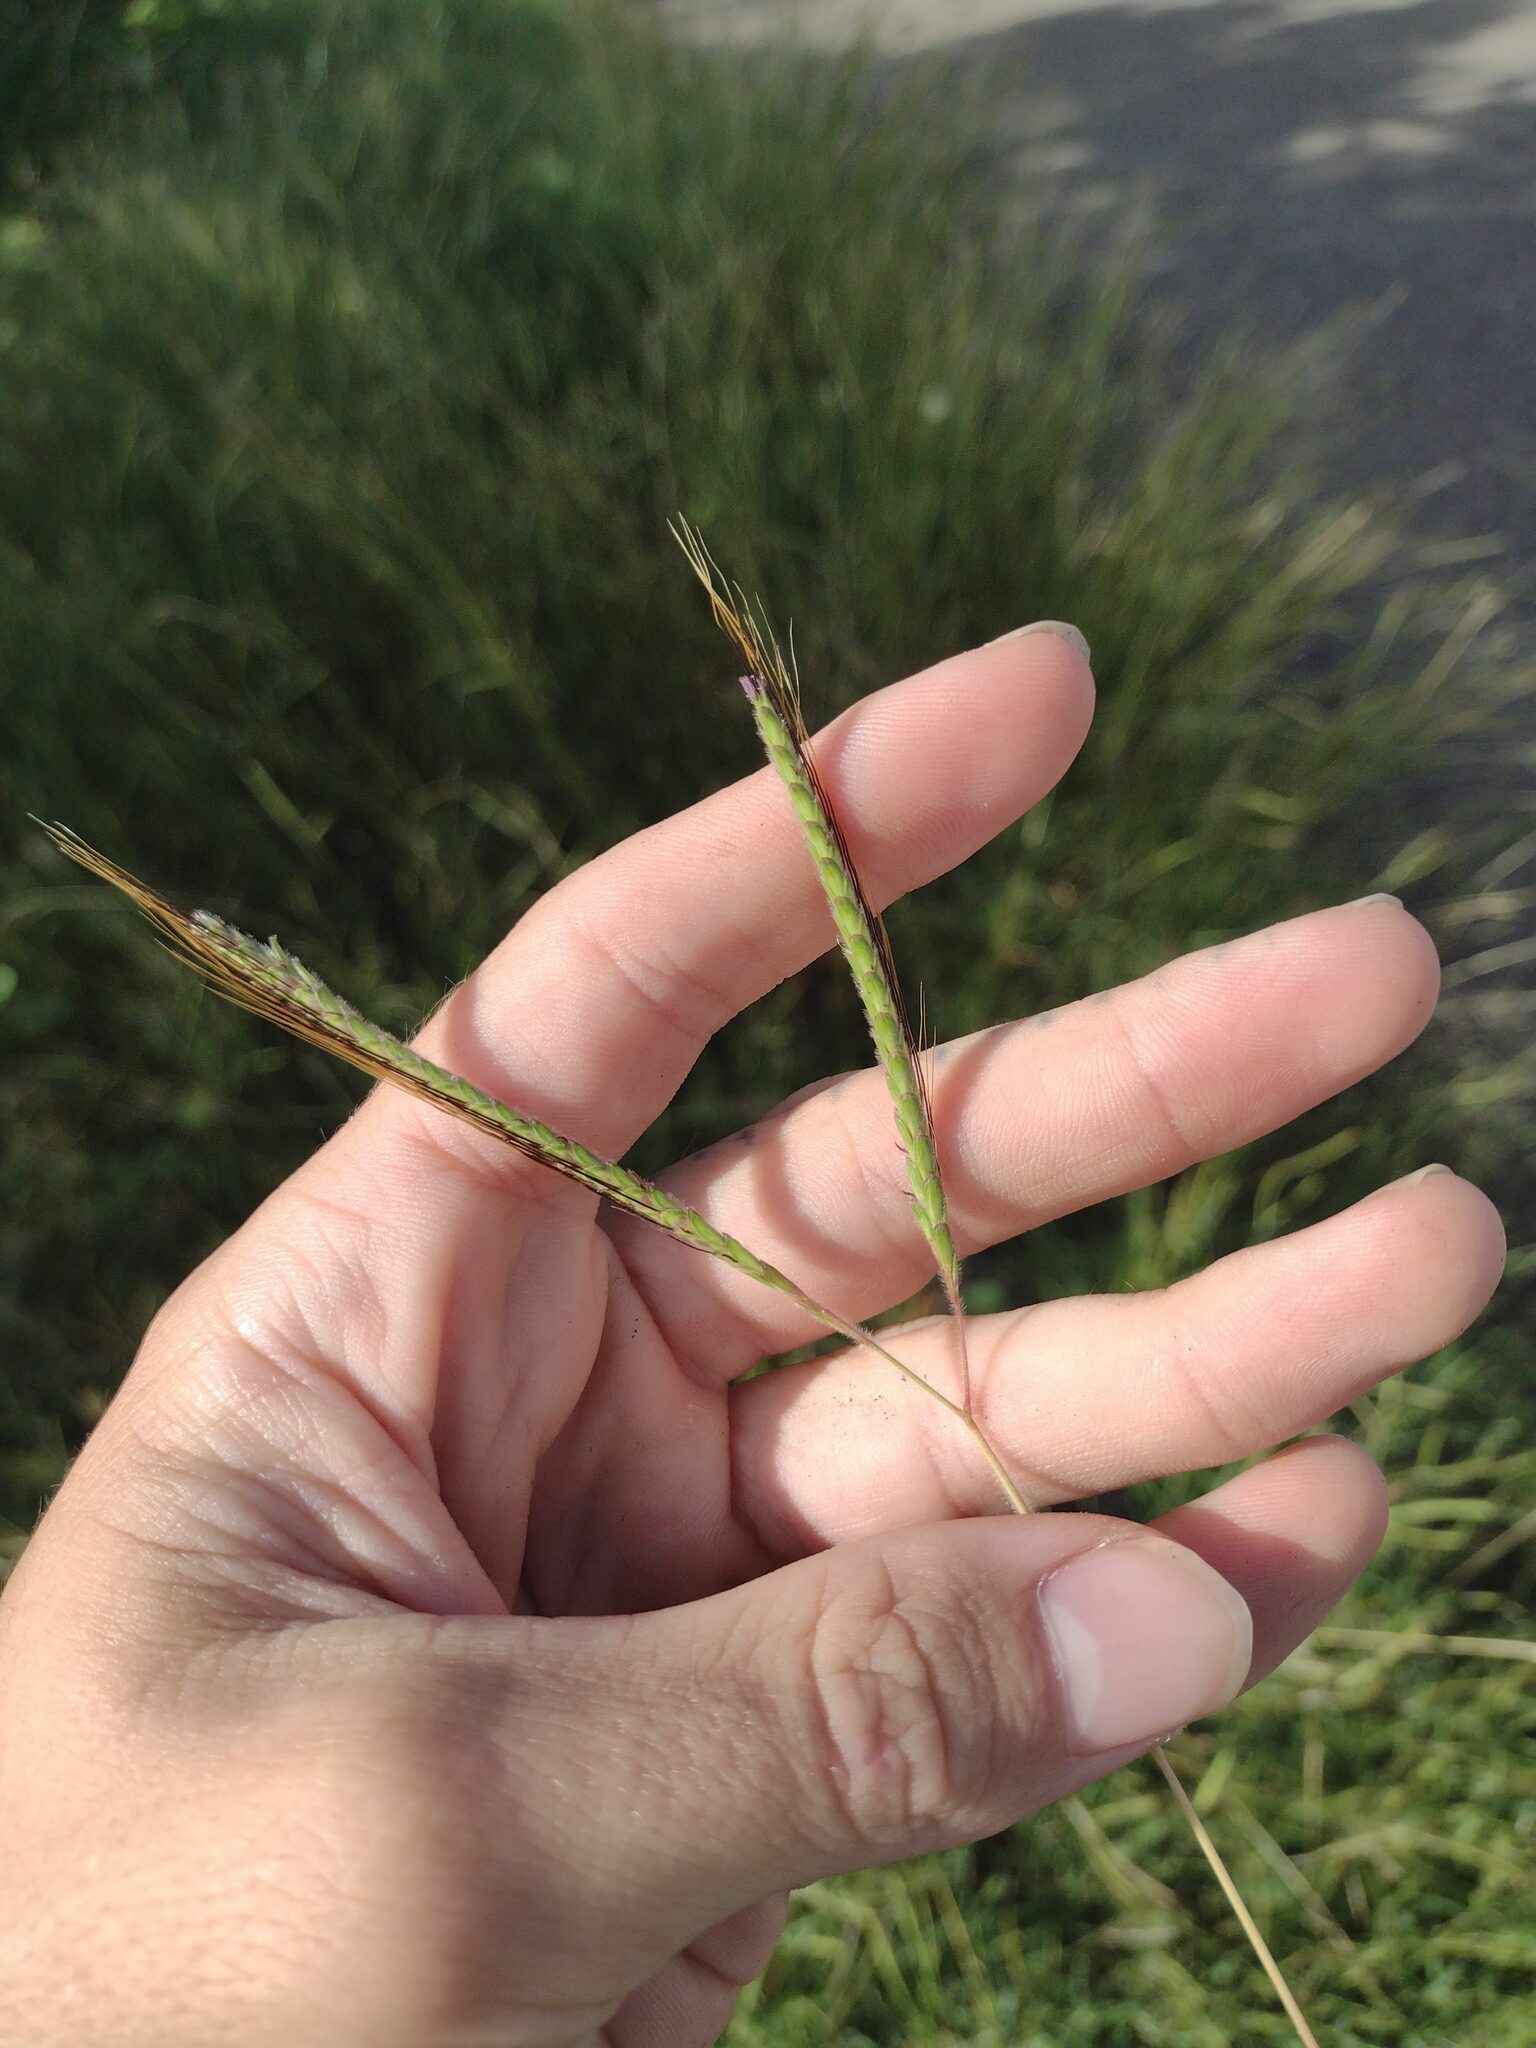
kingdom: Plantae
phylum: Tracheophyta
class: Liliopsida
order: Poales
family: Poaceae
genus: Dichanthium
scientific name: Dichanthium aristatum
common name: Angleton bluestem
